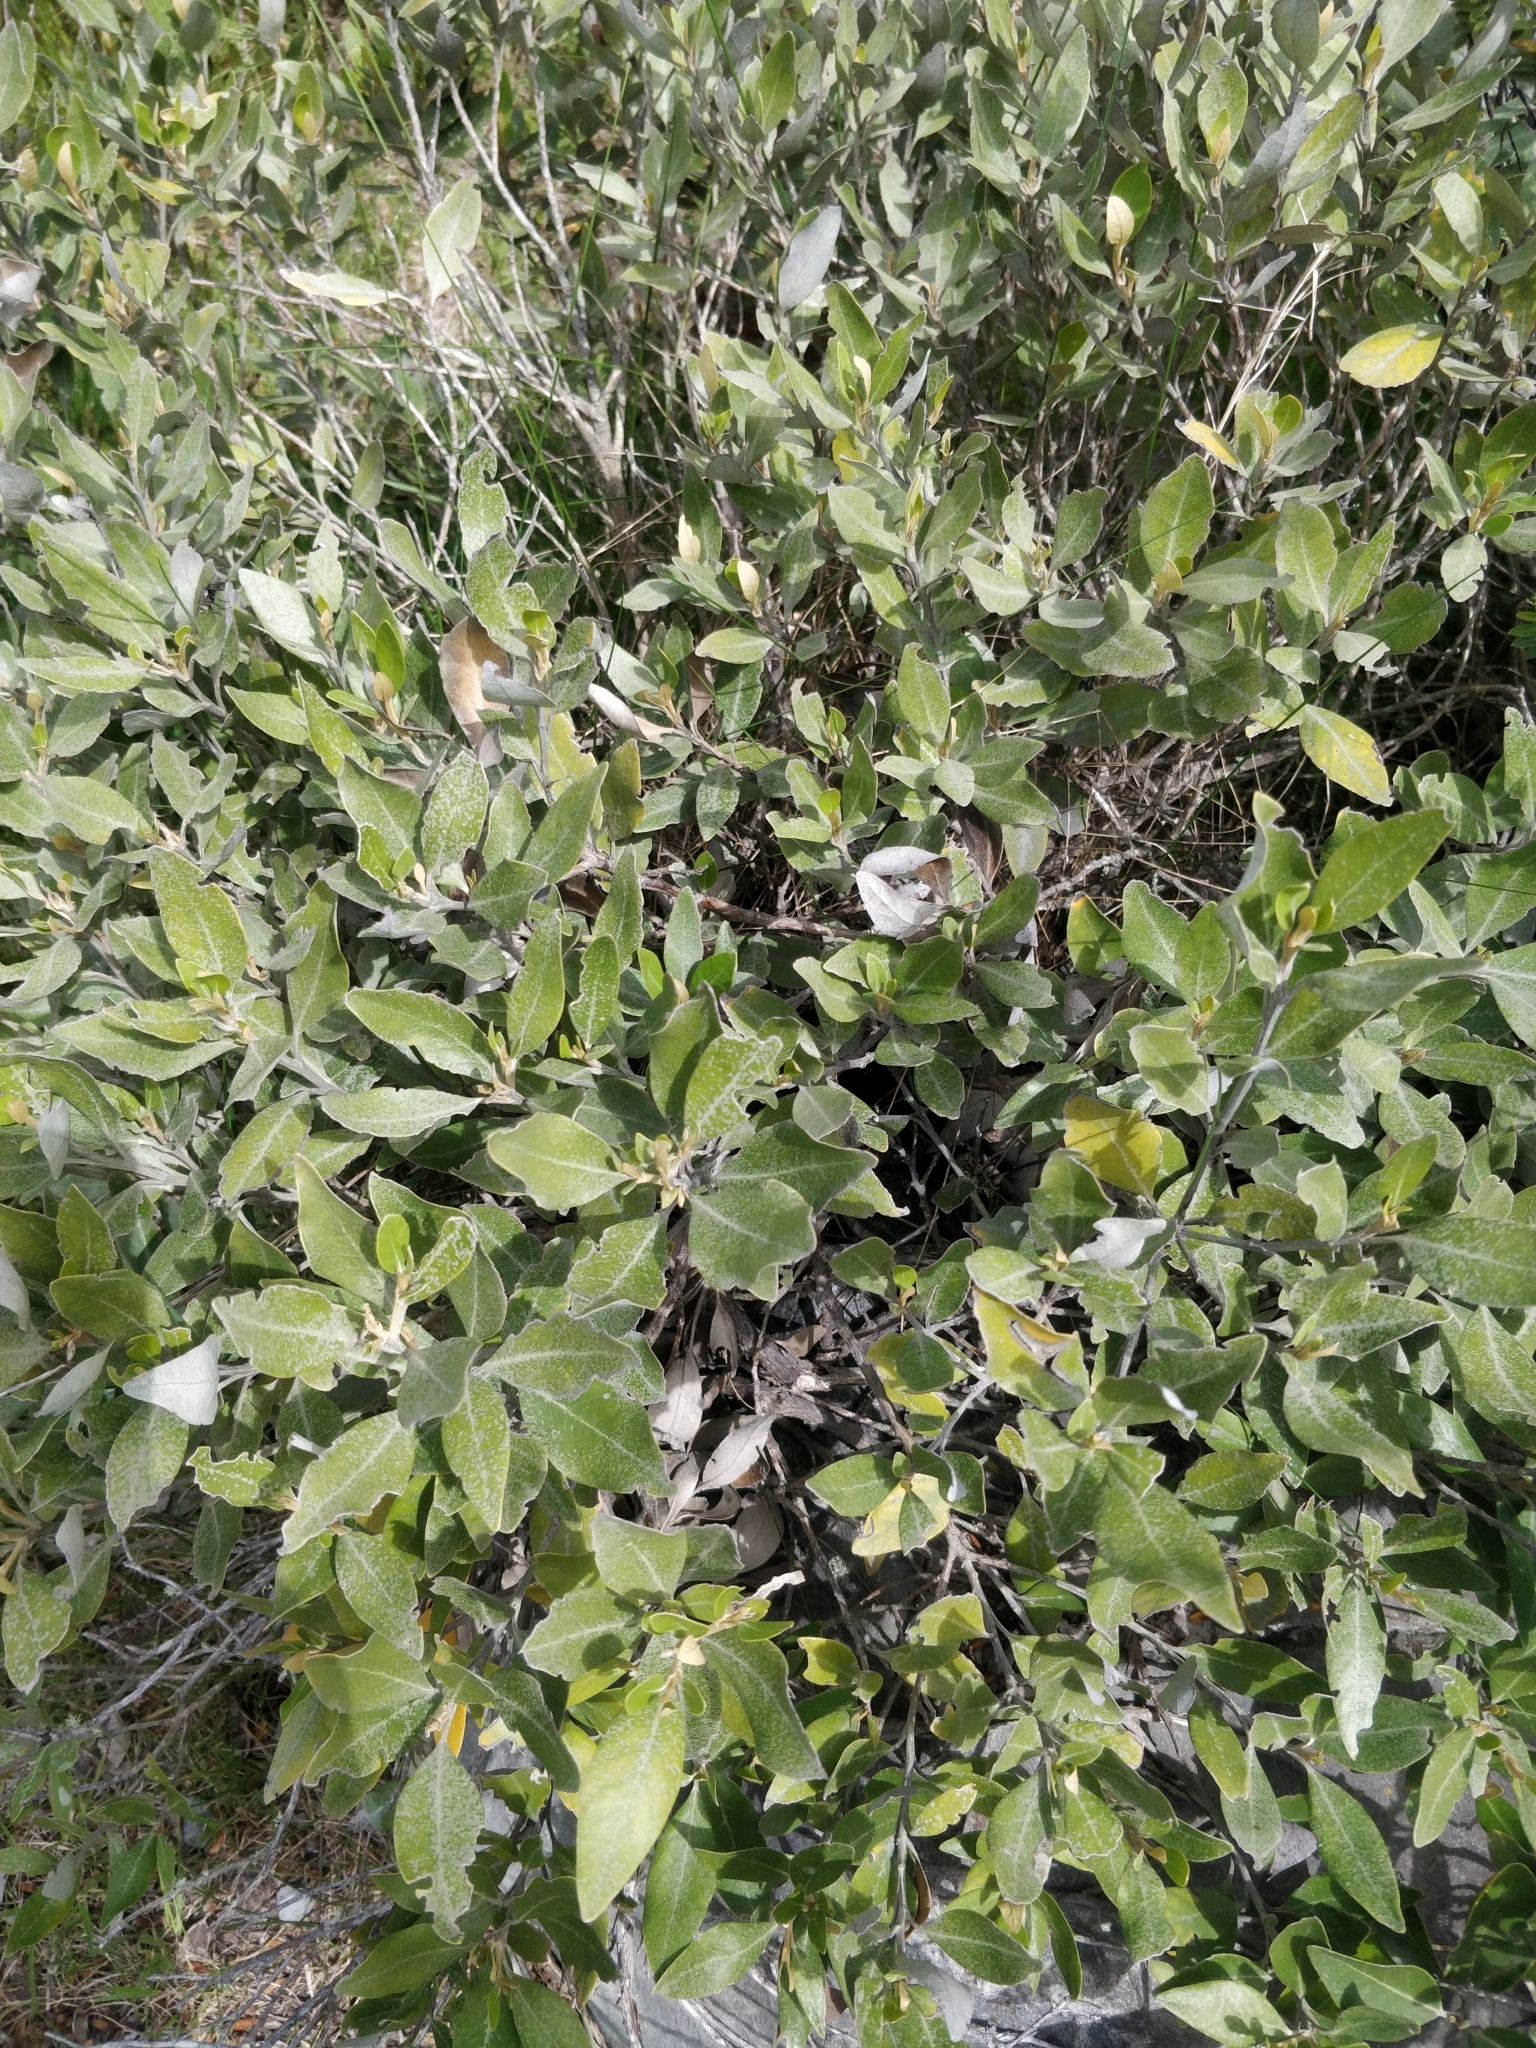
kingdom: Plantae
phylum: Tracheophyta
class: Magnoliopsida
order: Asterales
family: Asteraceae
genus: Olearia
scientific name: Olearia avicenniifolia
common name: Mangrove-leaf daisybush
